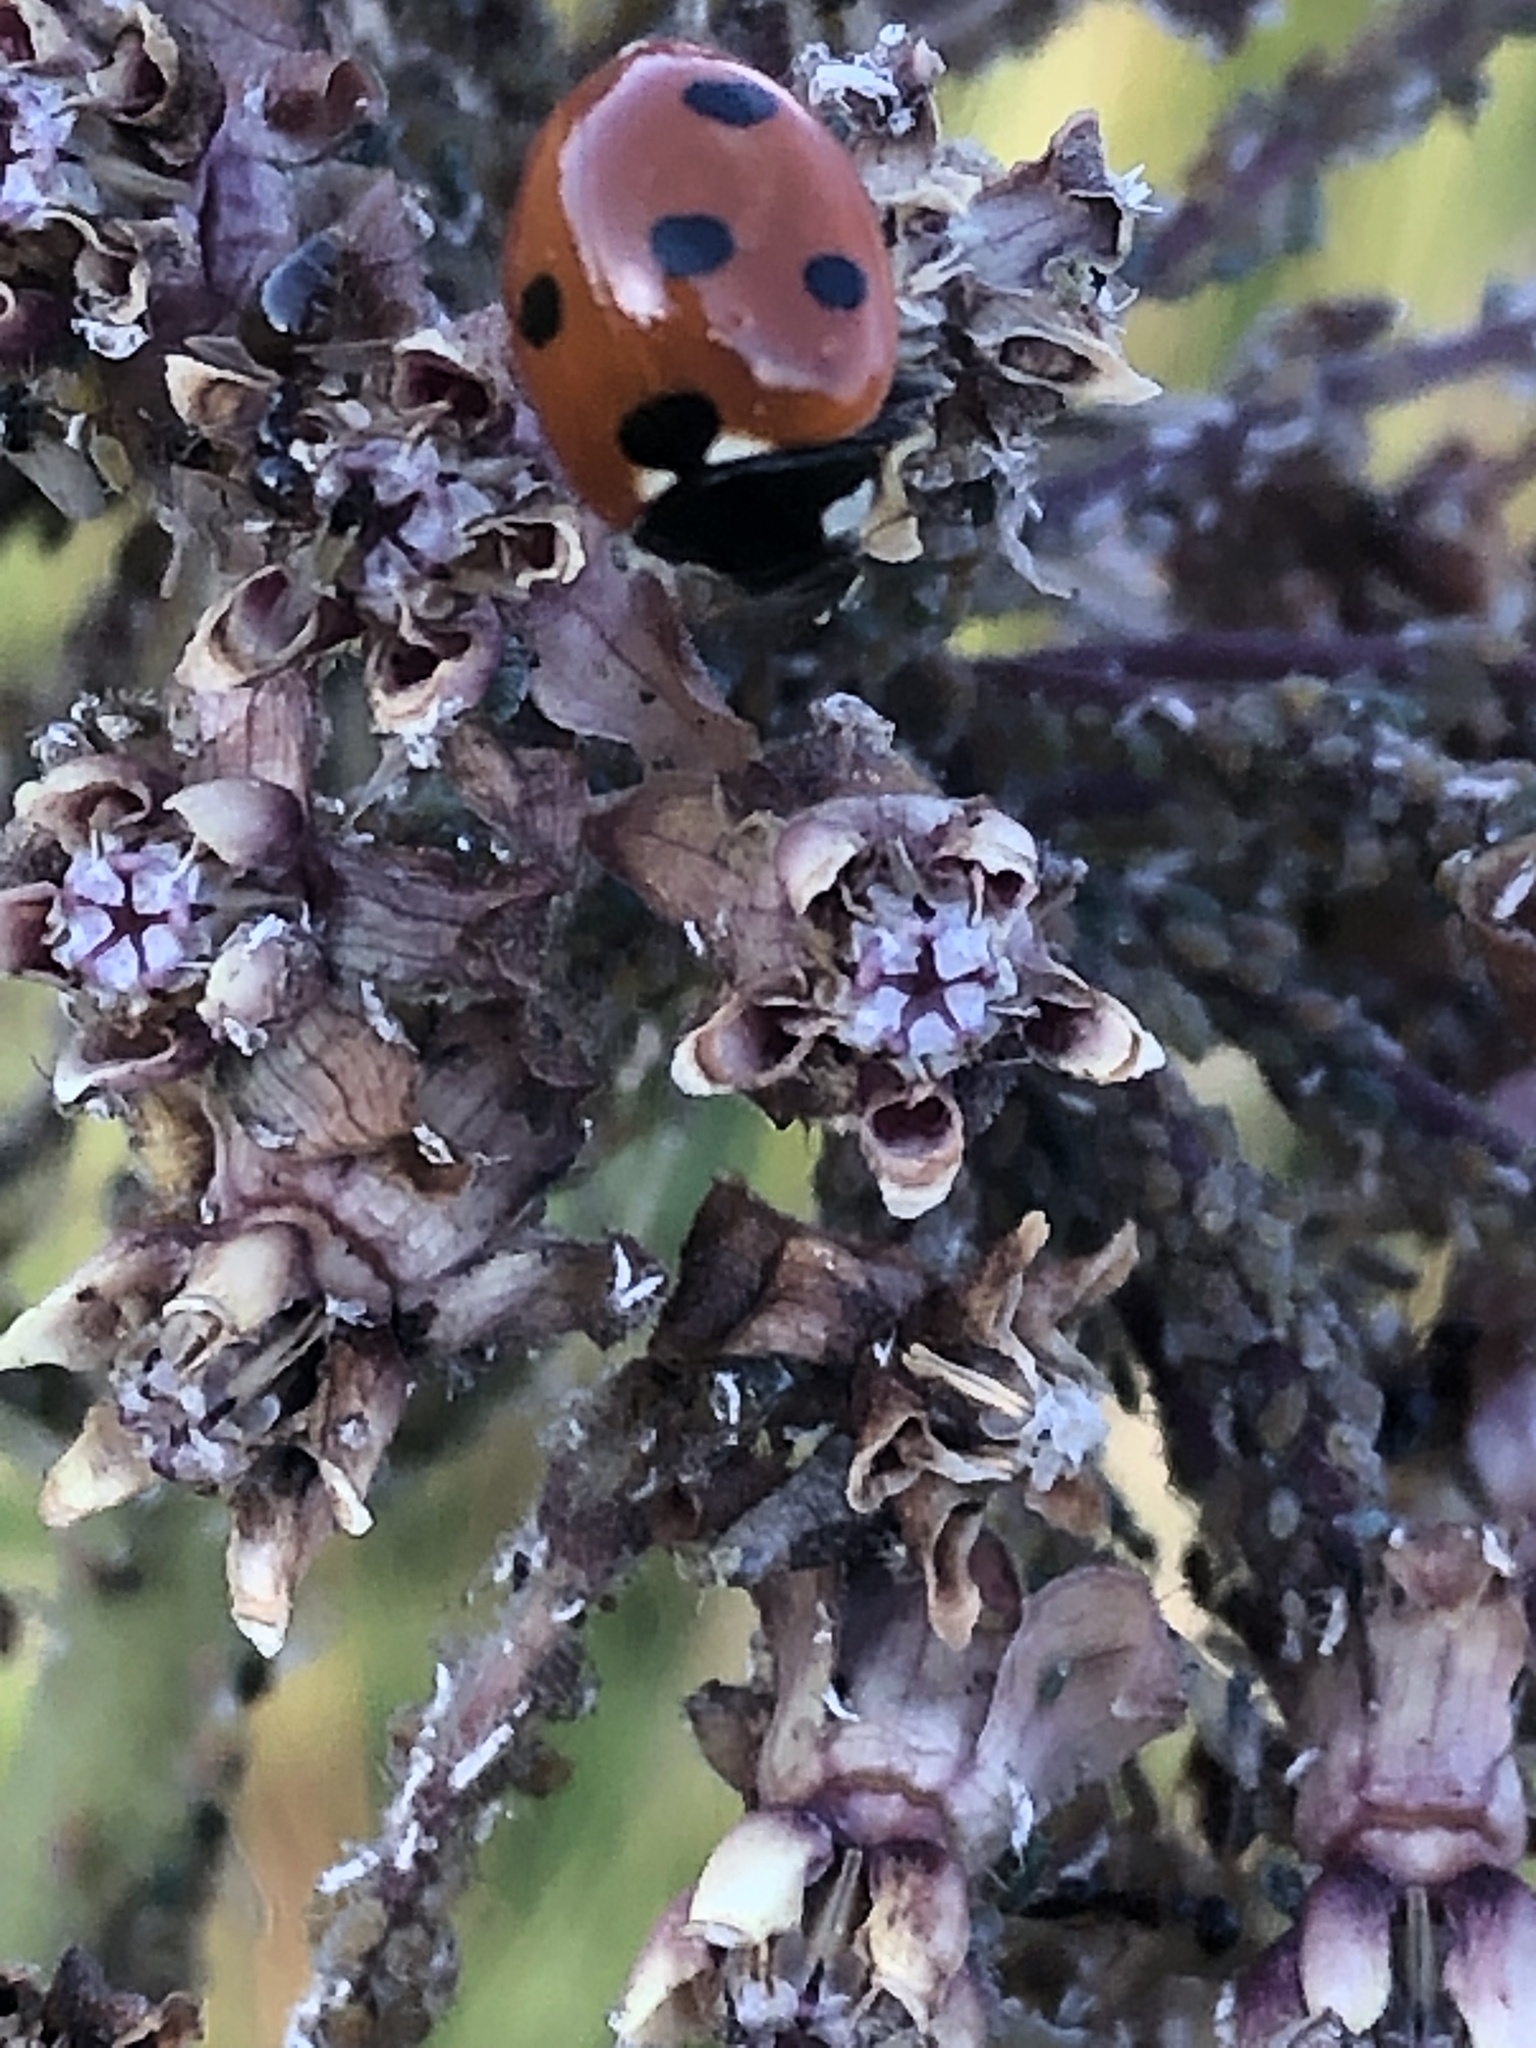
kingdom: Animalia
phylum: Arthropoda
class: Insecta
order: Coleoptera
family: Coccinellidae
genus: Coccinella
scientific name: Coccinella septempunctata
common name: Sevenspotted lady beetle
